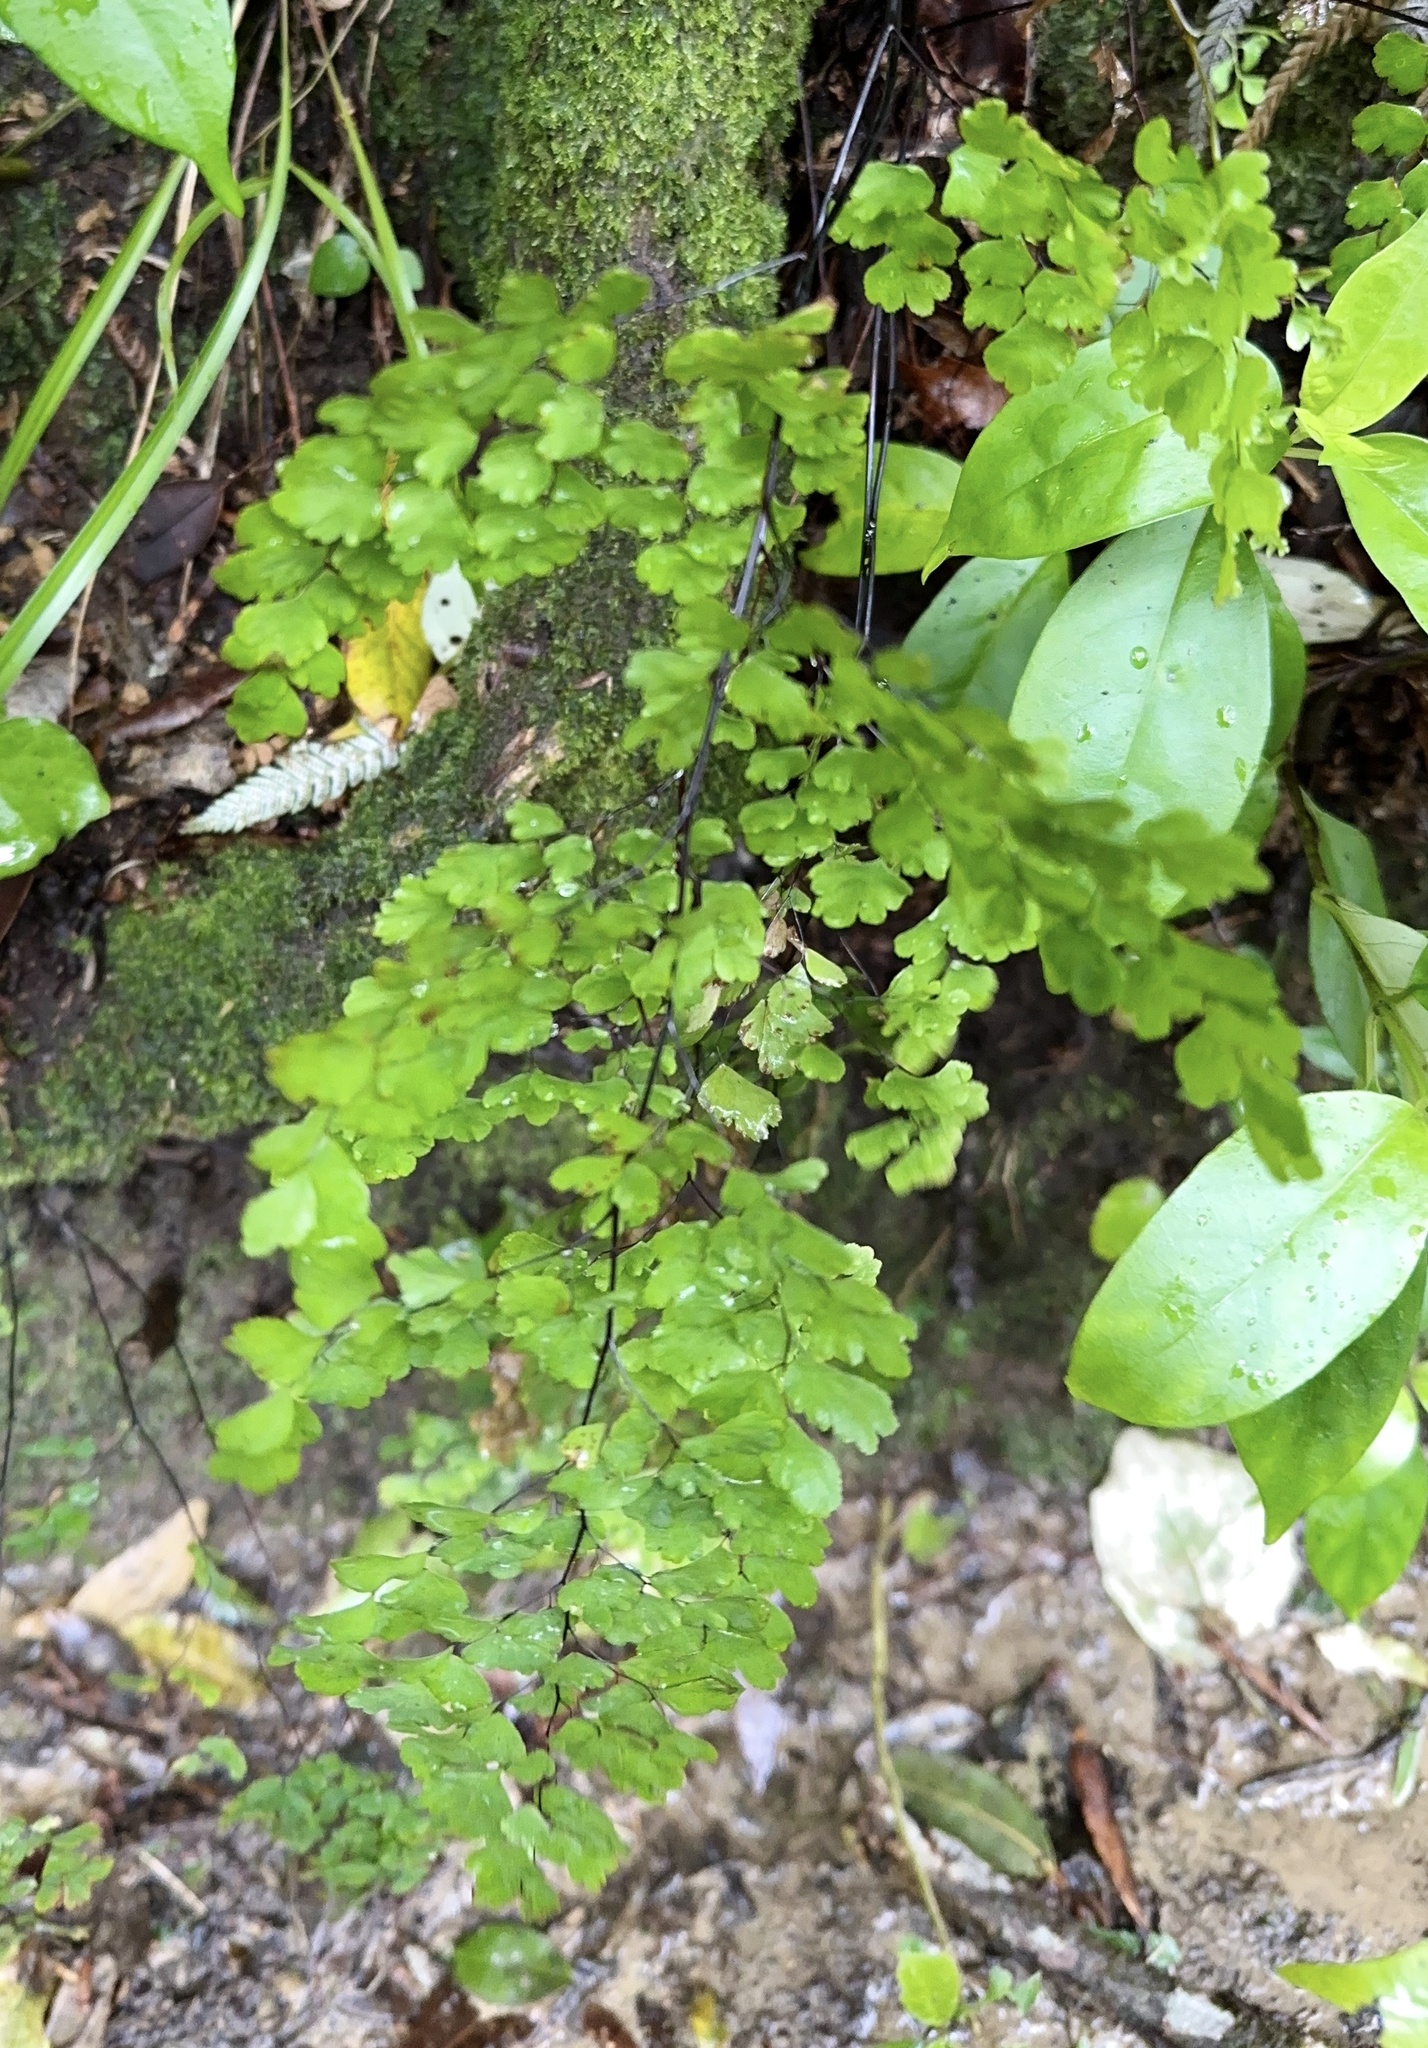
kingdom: Plantae
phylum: Tracheophyta
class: Polypodiopsida
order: Polypodiales
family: Pteridaceae
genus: Adiantum
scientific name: Adiantum raddianum
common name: Delta maidenhair fern
